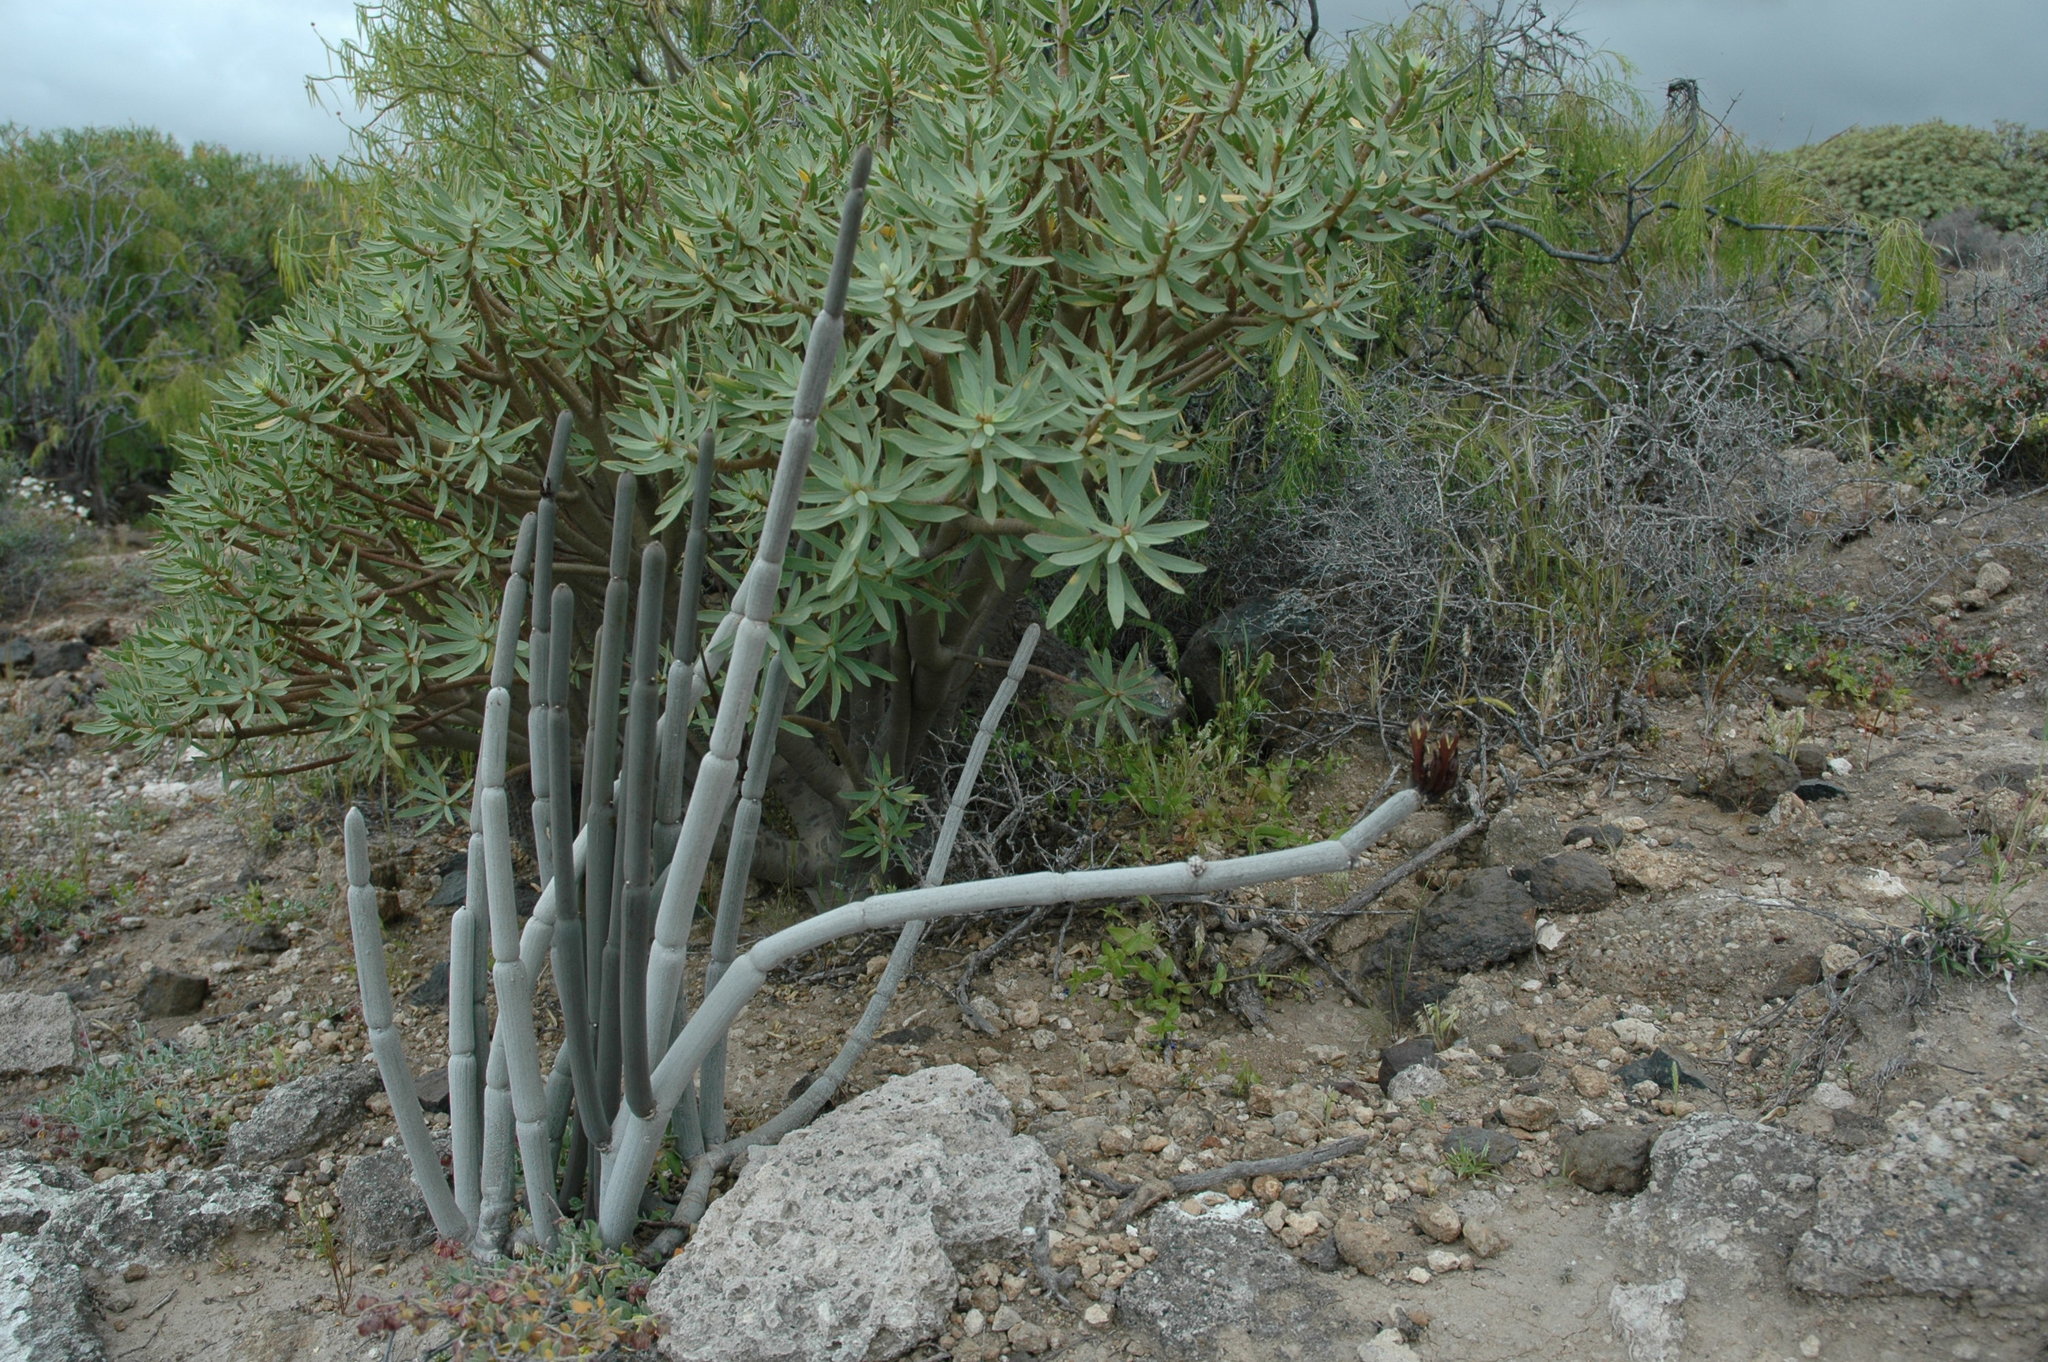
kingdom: Plantae
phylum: Tracheophyta
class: Magnoliopsida
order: Gentianales
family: Apocynaceae
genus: Ceropegia
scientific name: Ceropegia fusca
